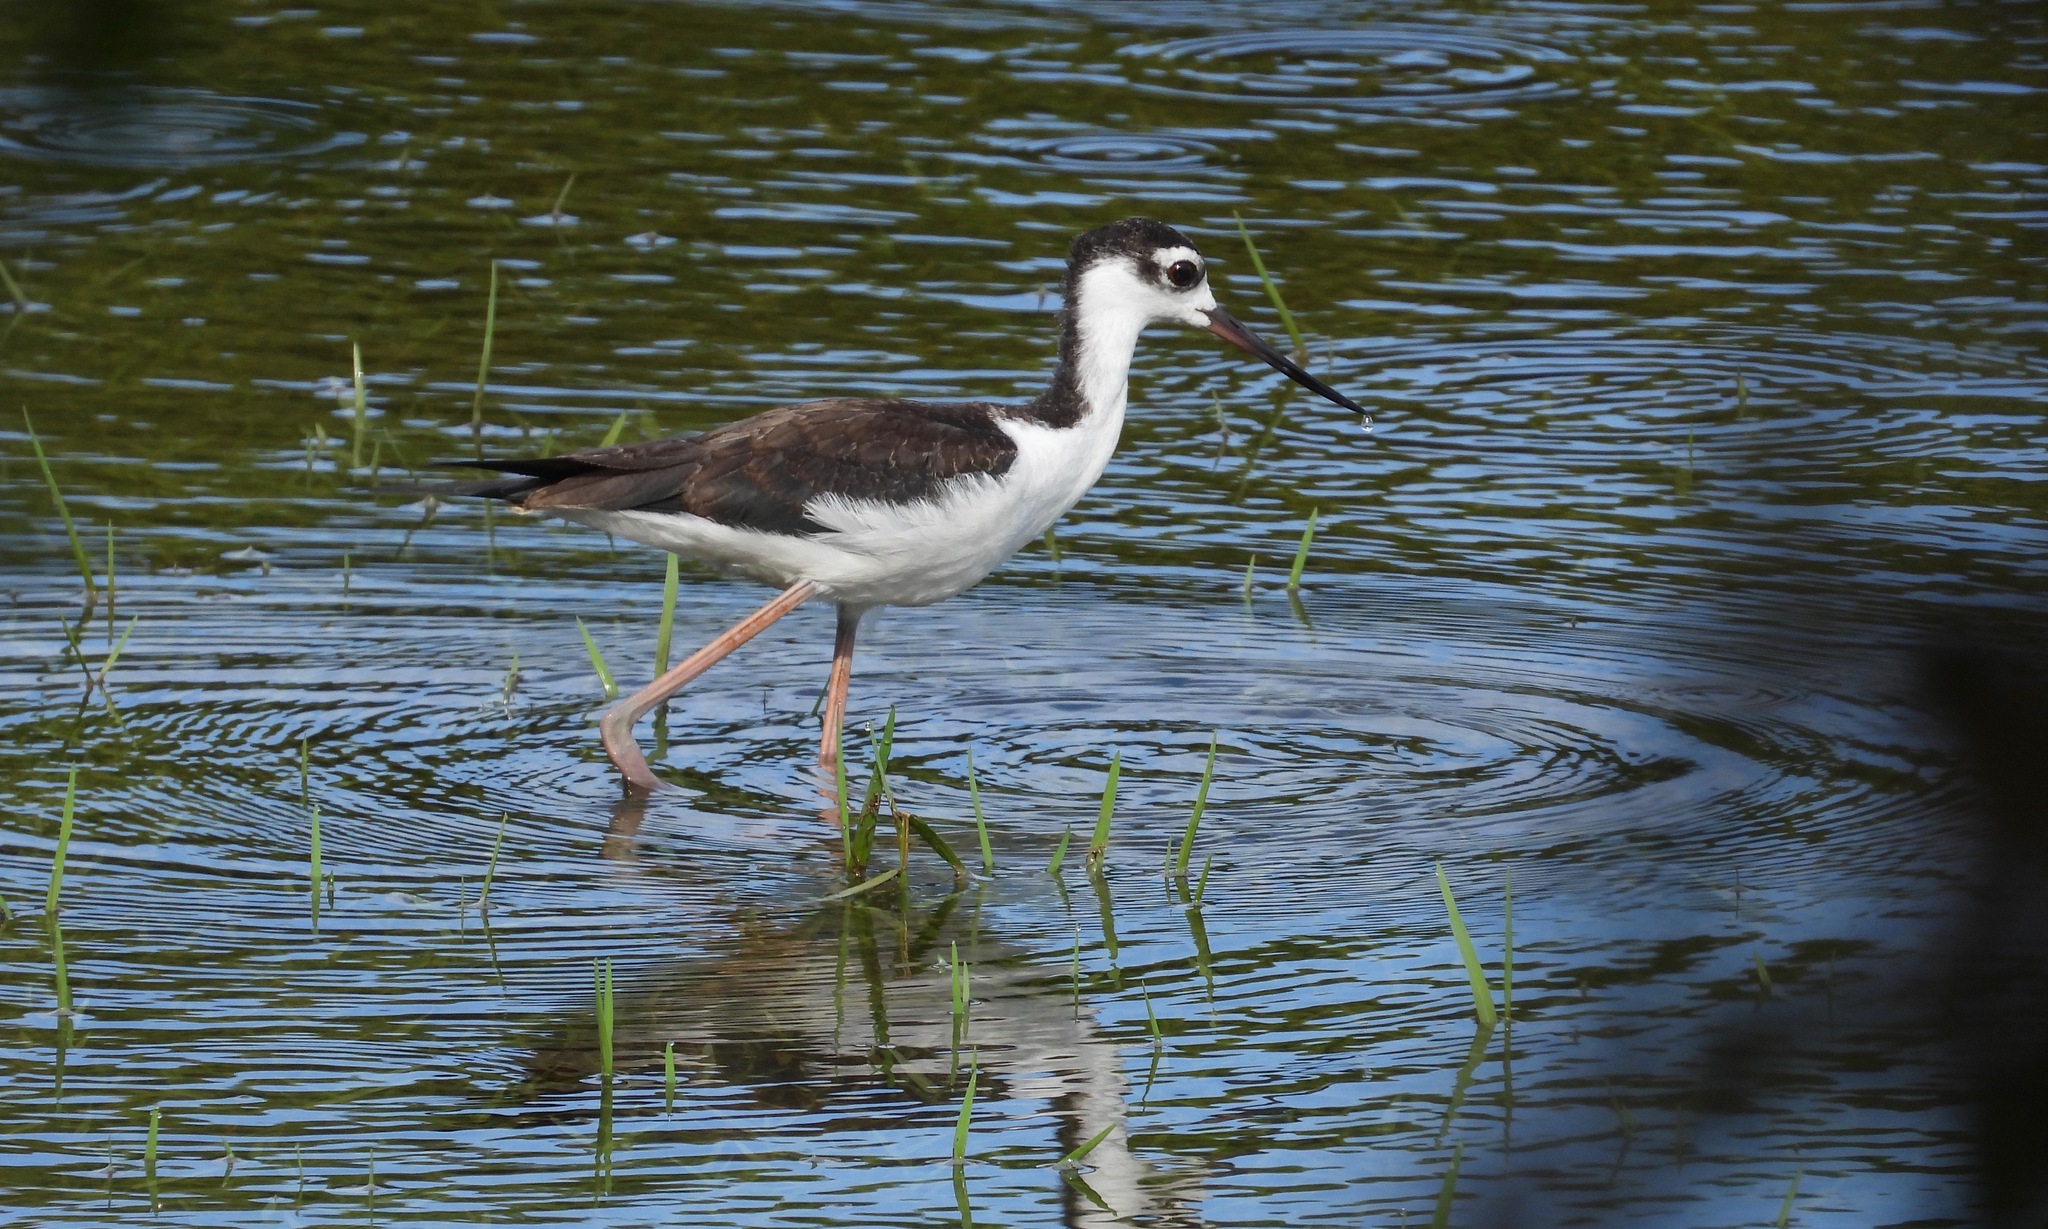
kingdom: Animalia
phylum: Chordata
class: Aves
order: Charadriiformes
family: Recurvirostridae
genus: Himantopus
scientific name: Himantopus mexicanus
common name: Black-necked stilt
